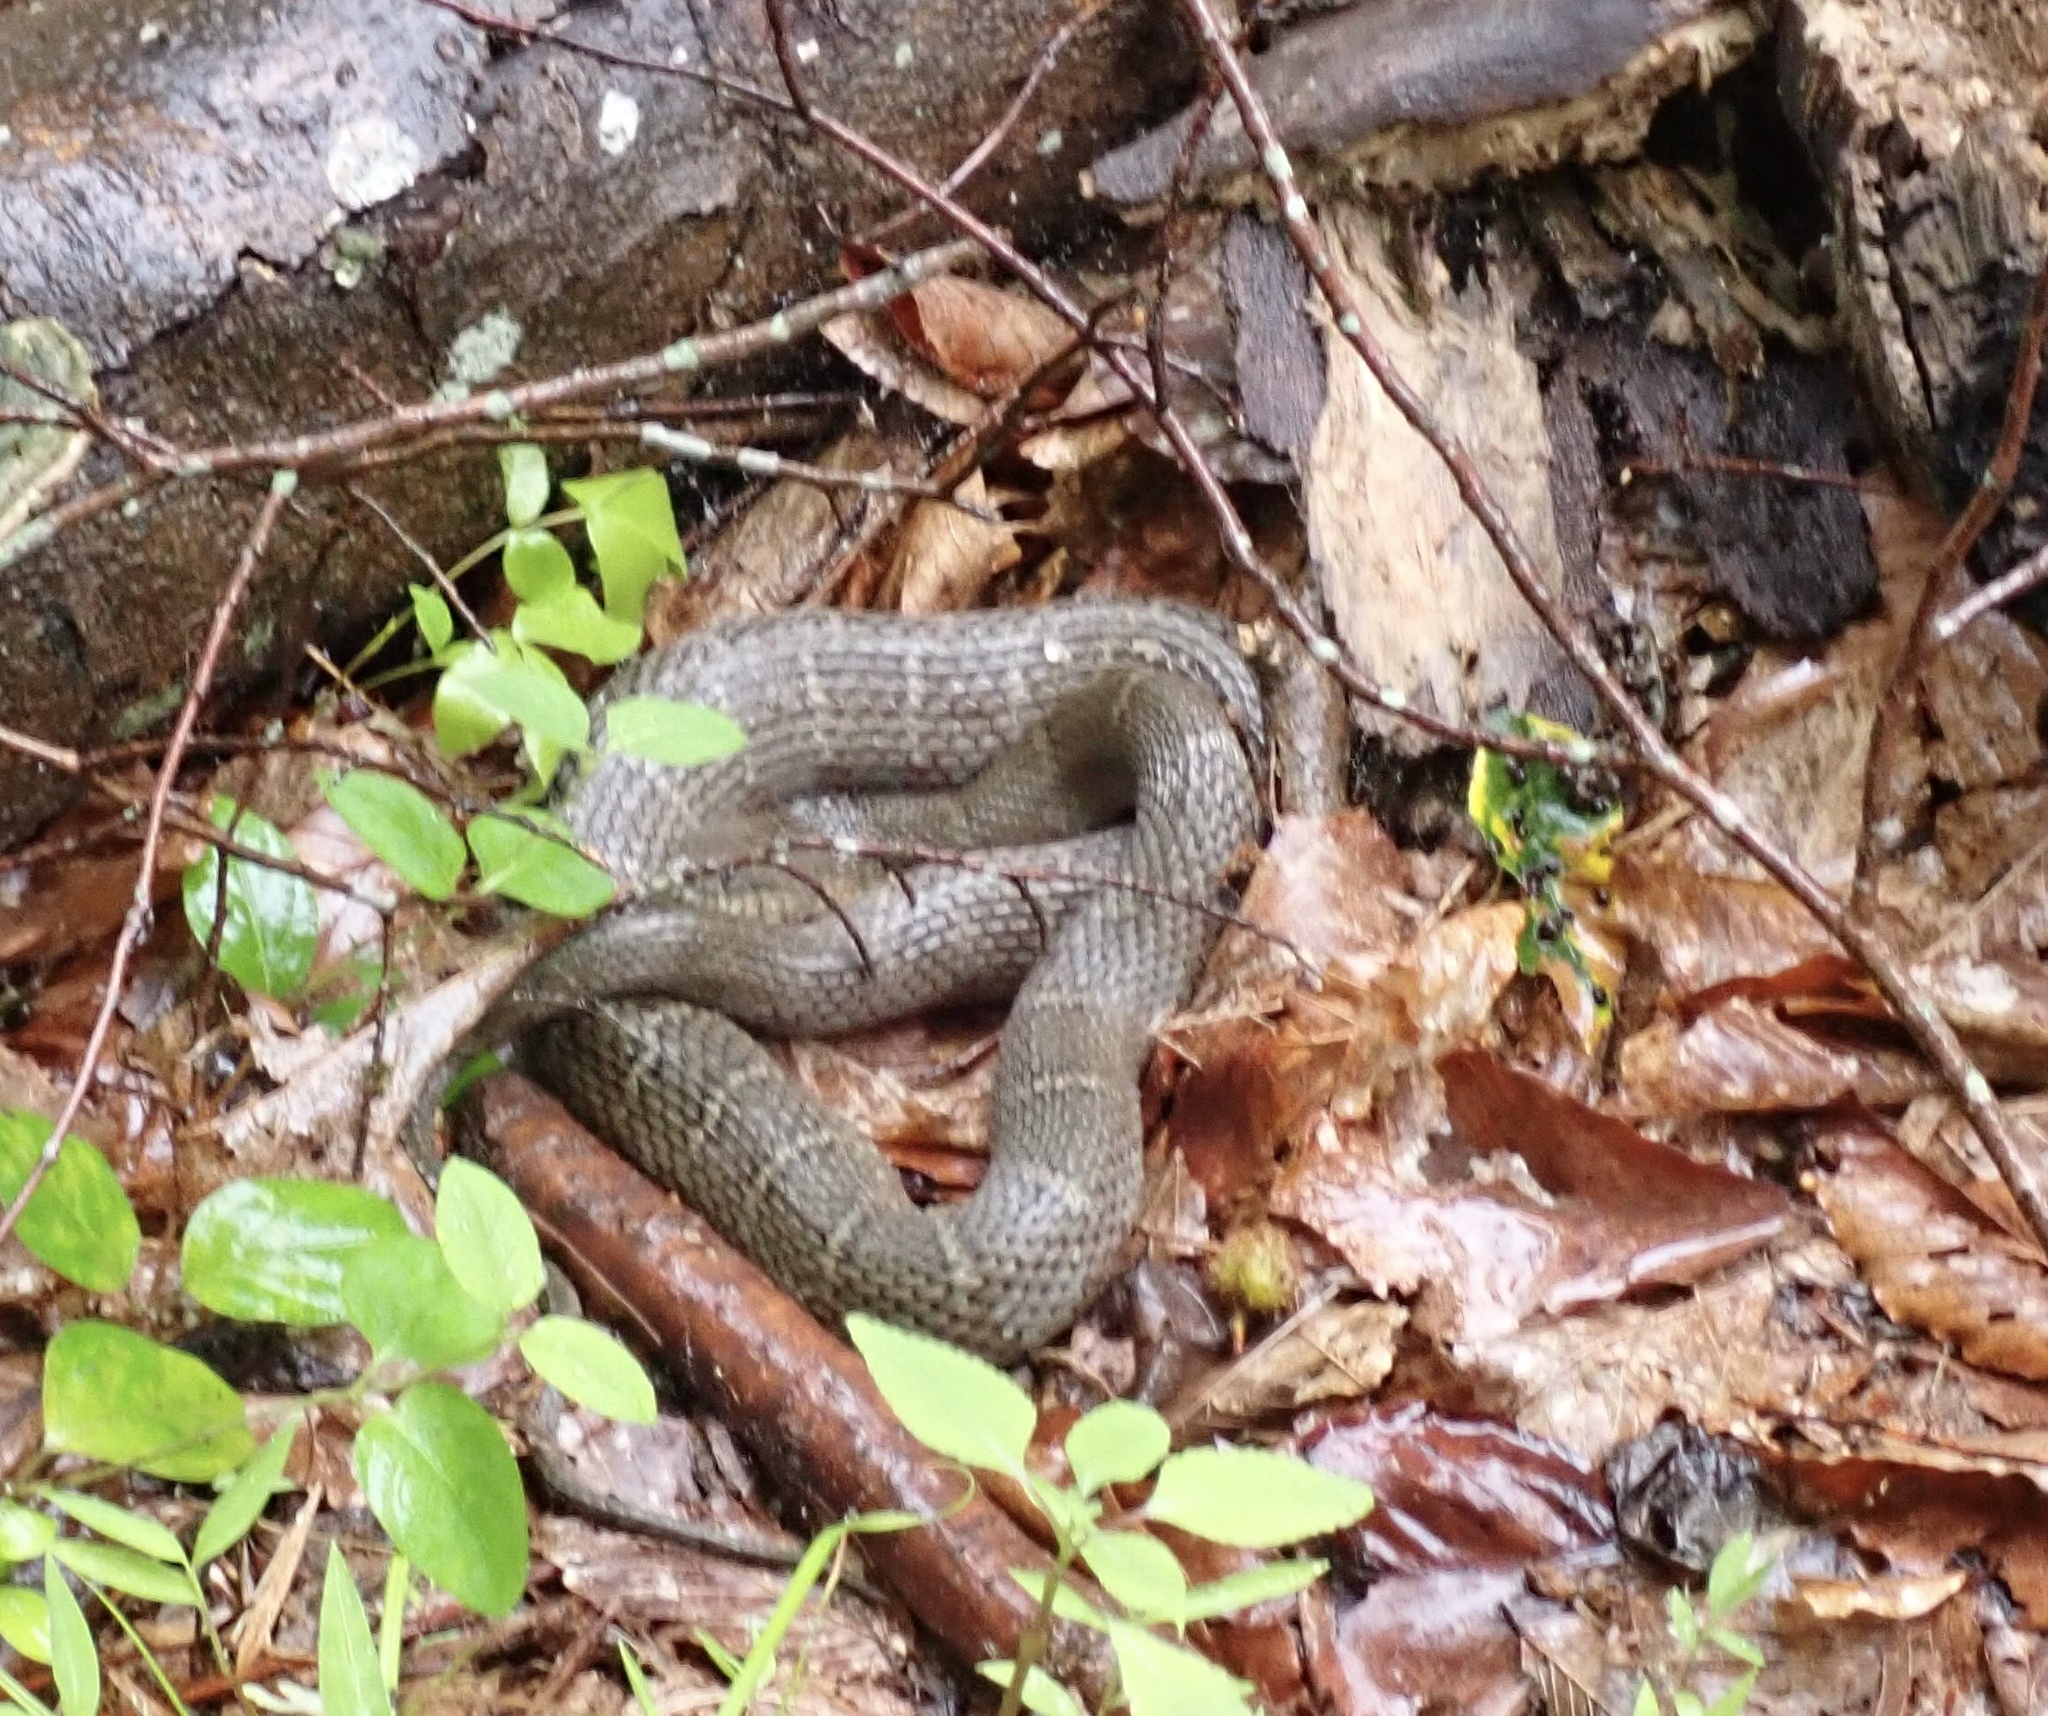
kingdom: Animalia
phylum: Chordata
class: Squamata
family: Colubridae
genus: Nerodia
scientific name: Nerodia sipedon
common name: Northern water snake
